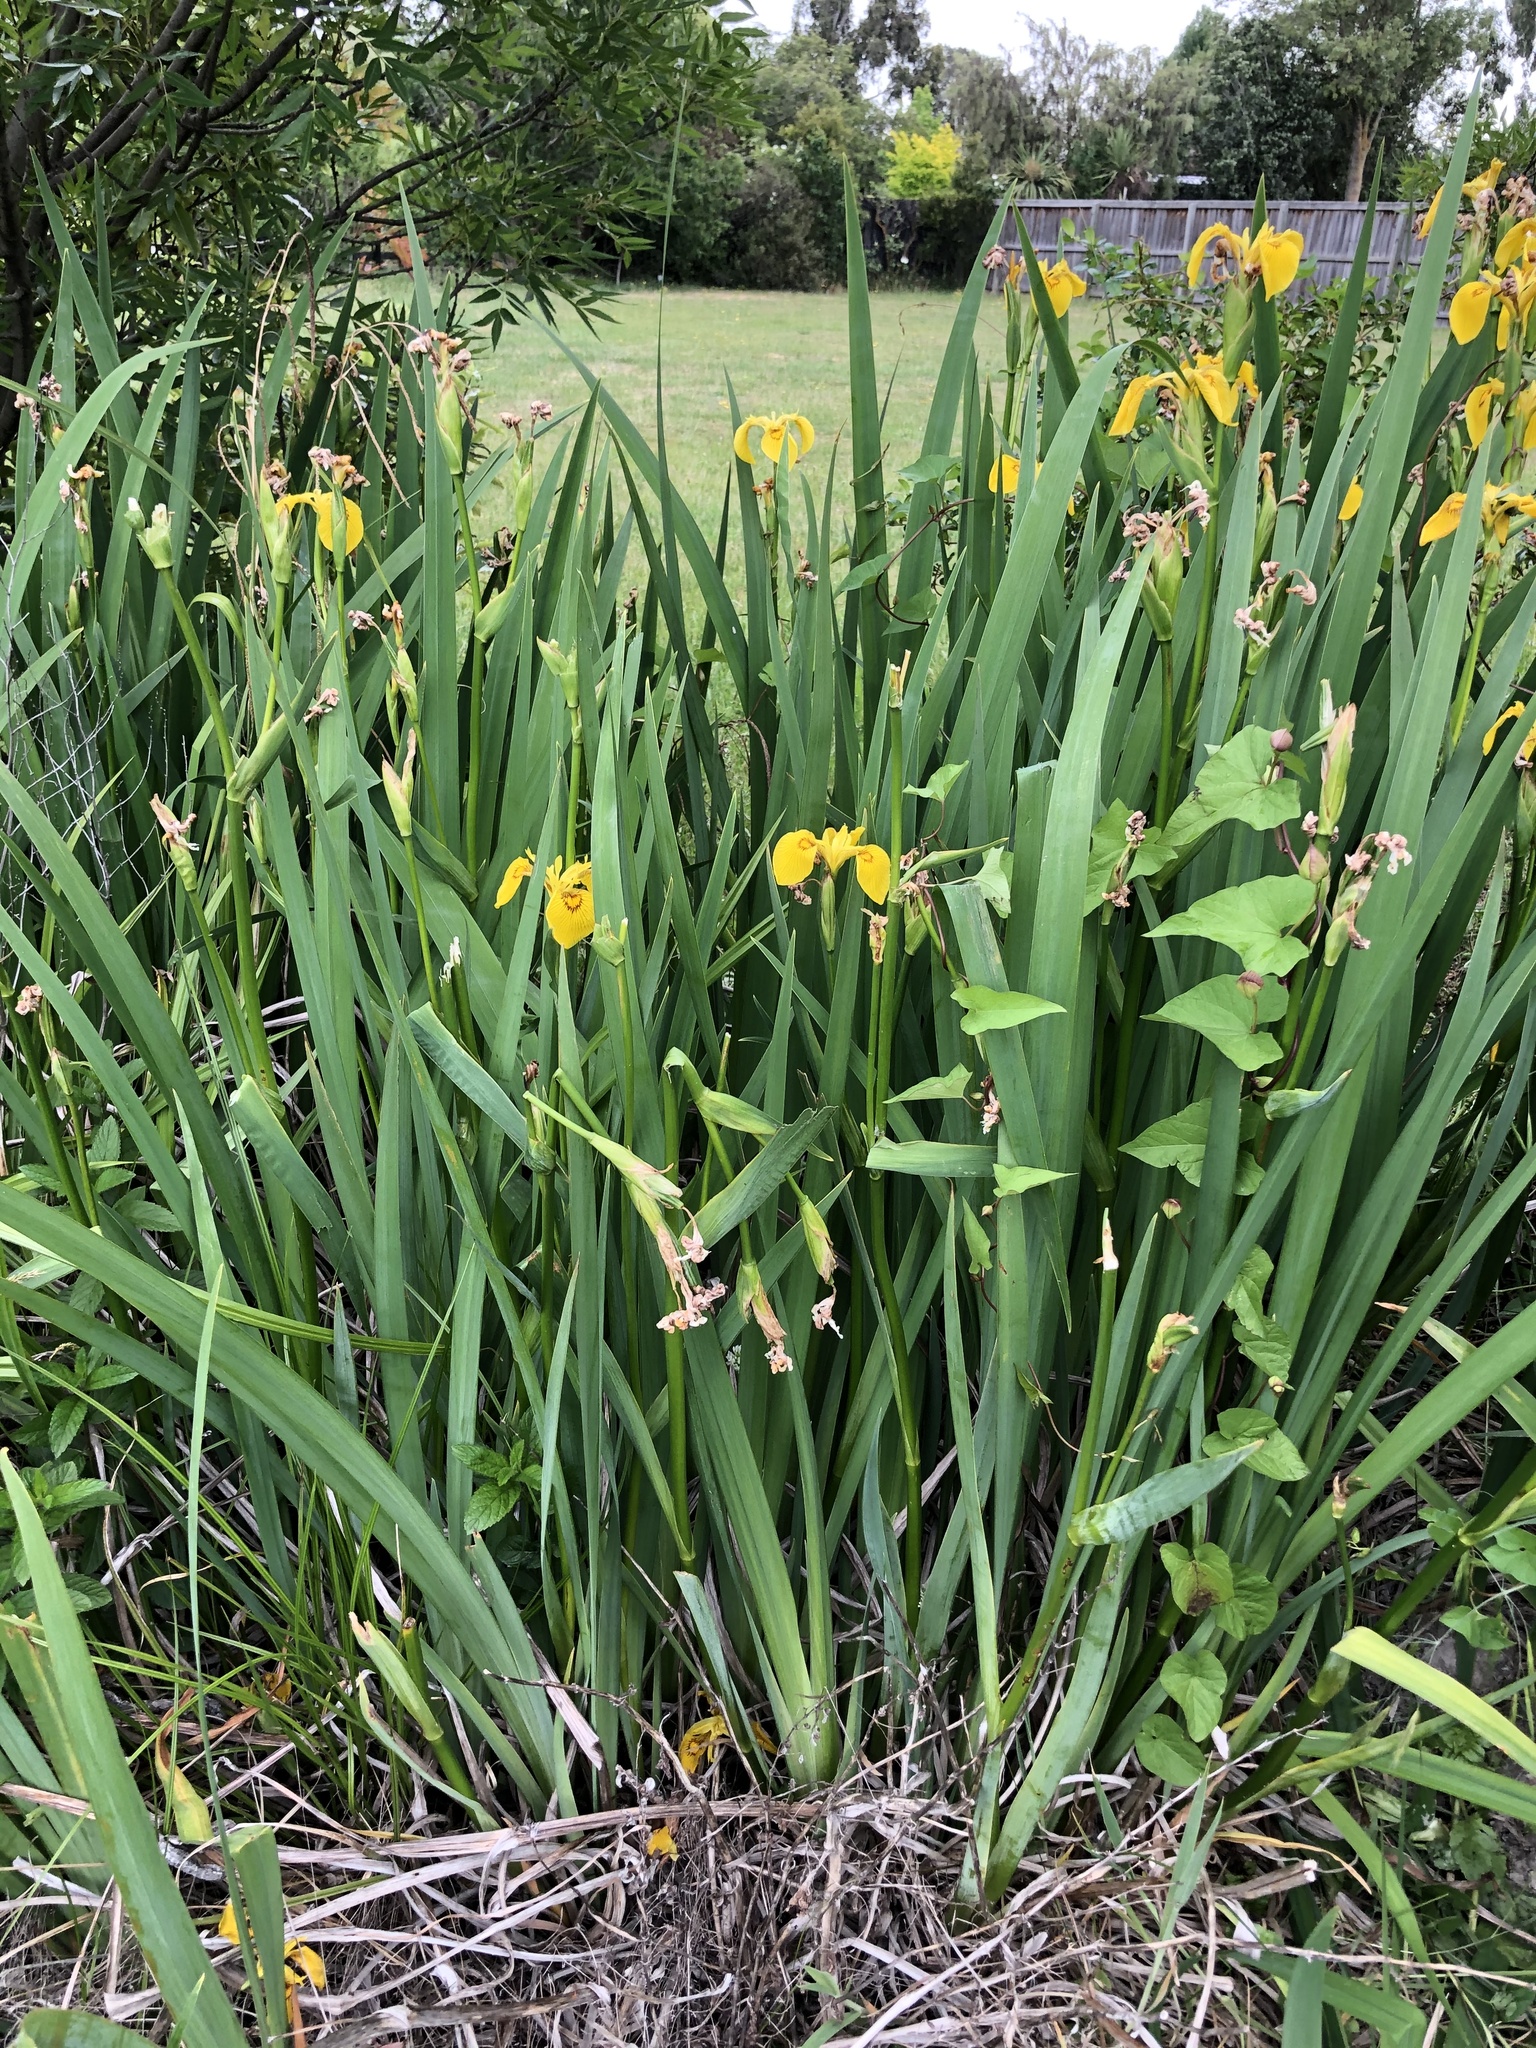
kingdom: Plantae
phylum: Tracheophyta
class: Liliopsida
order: Asparagales
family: Iridaceae
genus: Iris
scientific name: Iris pseudacorus
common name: Yellow flag
